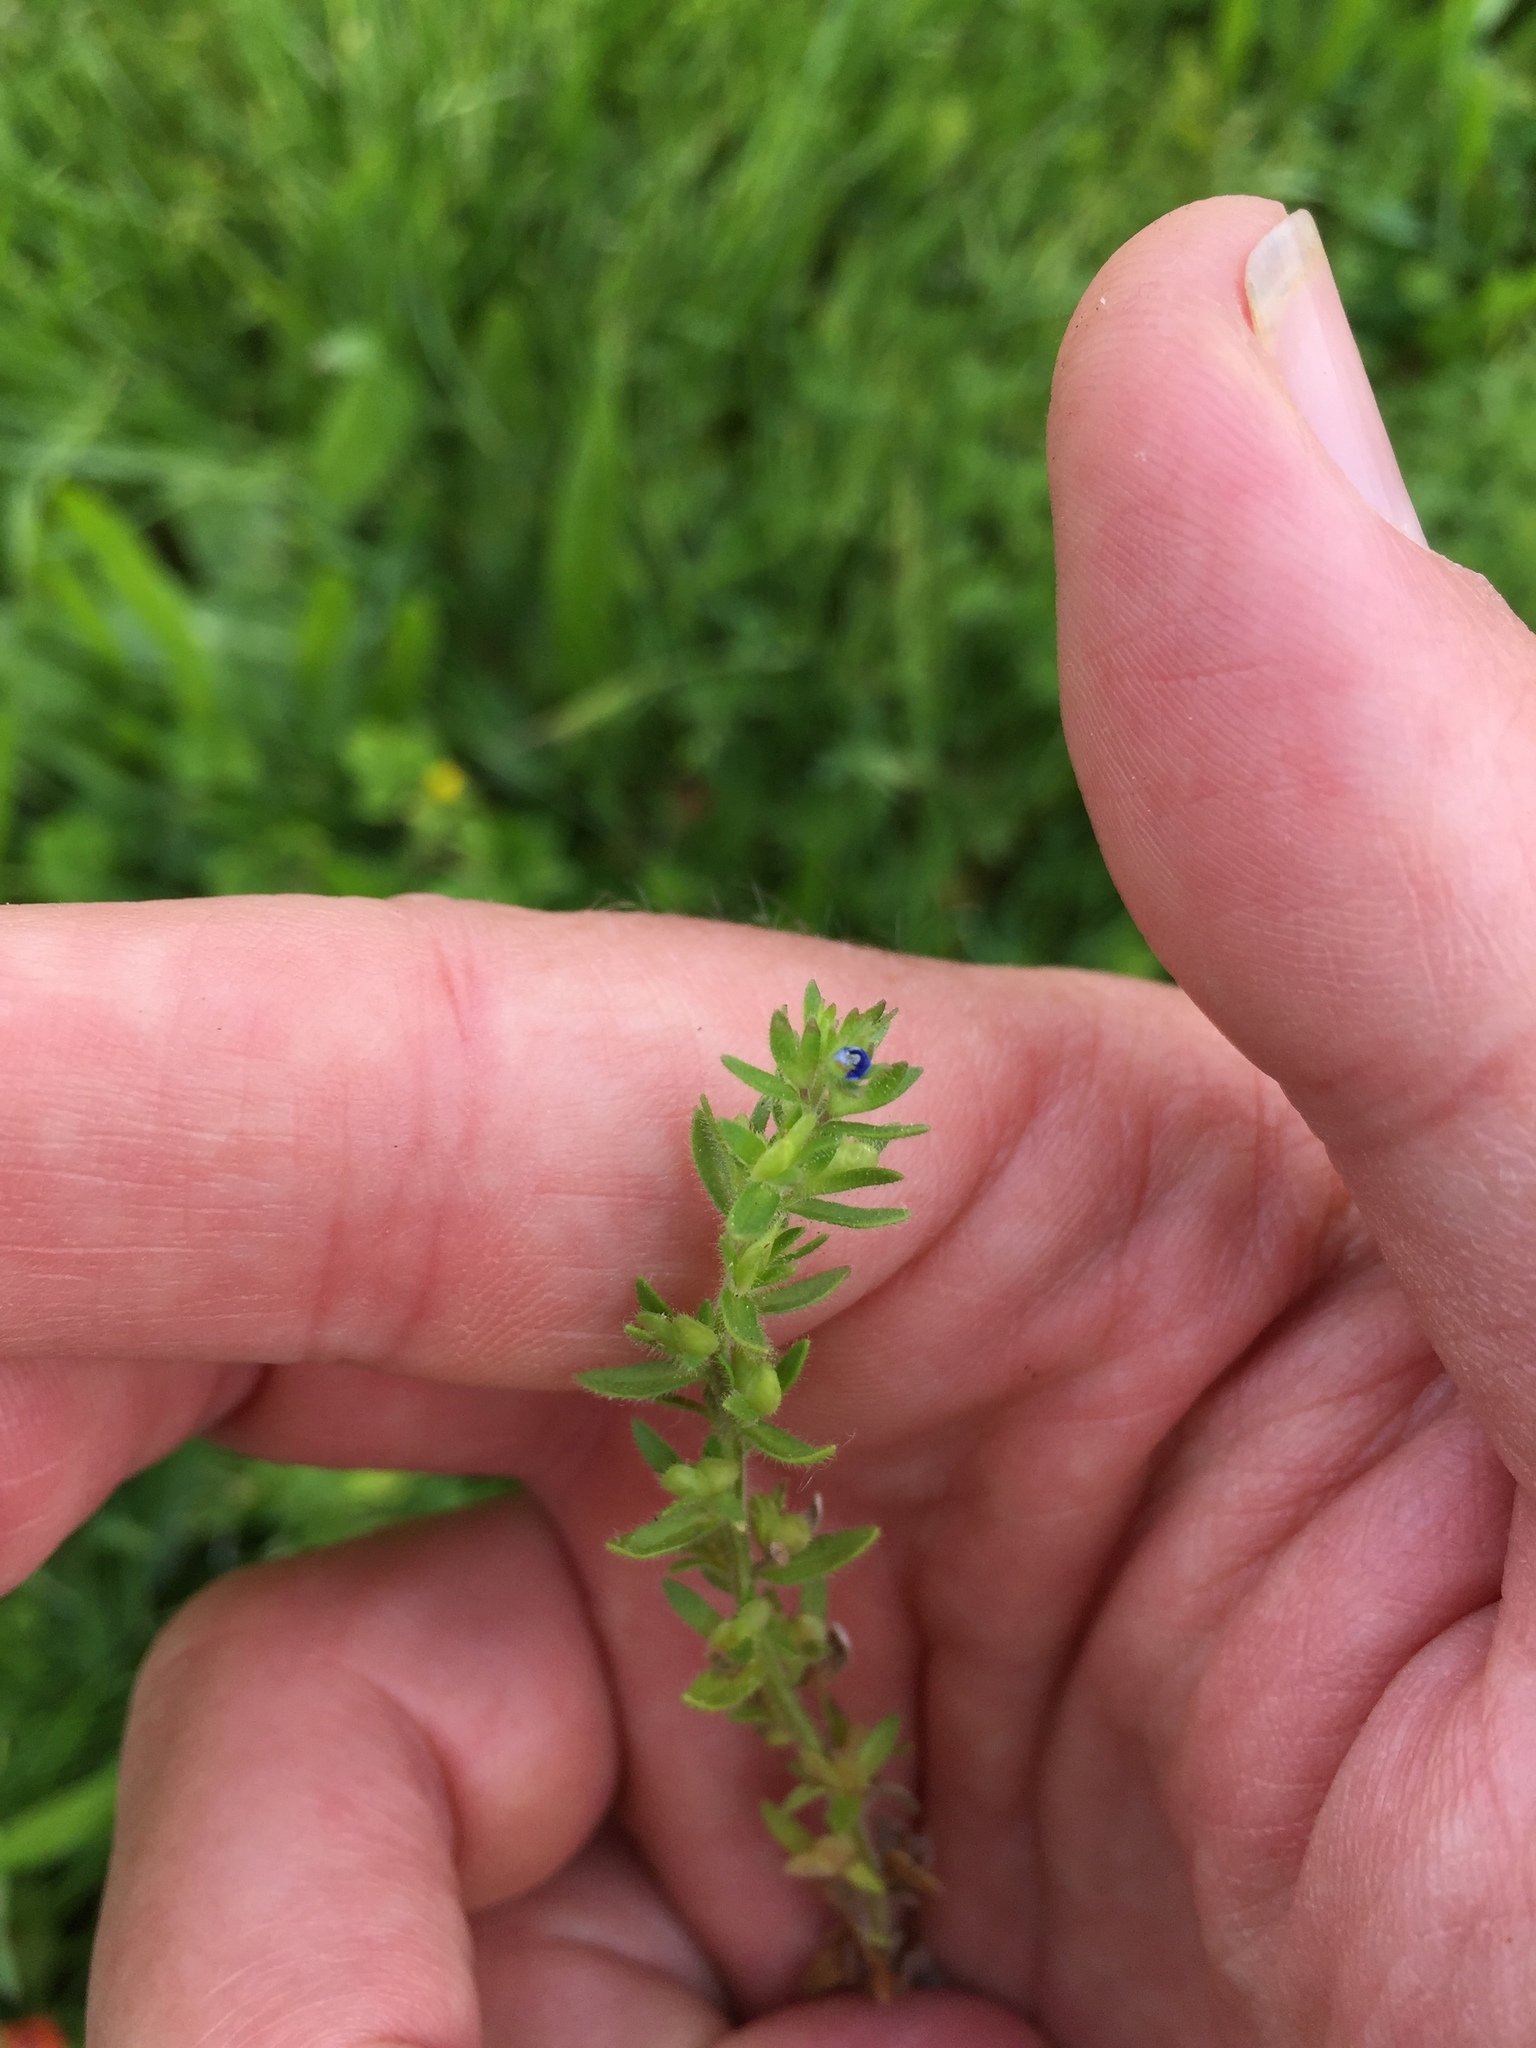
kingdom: Plantae
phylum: Tracheophyta
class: Magnoliopsida
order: Lamiales
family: Plantaginaceae
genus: Veronica
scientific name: Veronica arvensis
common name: Corn speedwell
